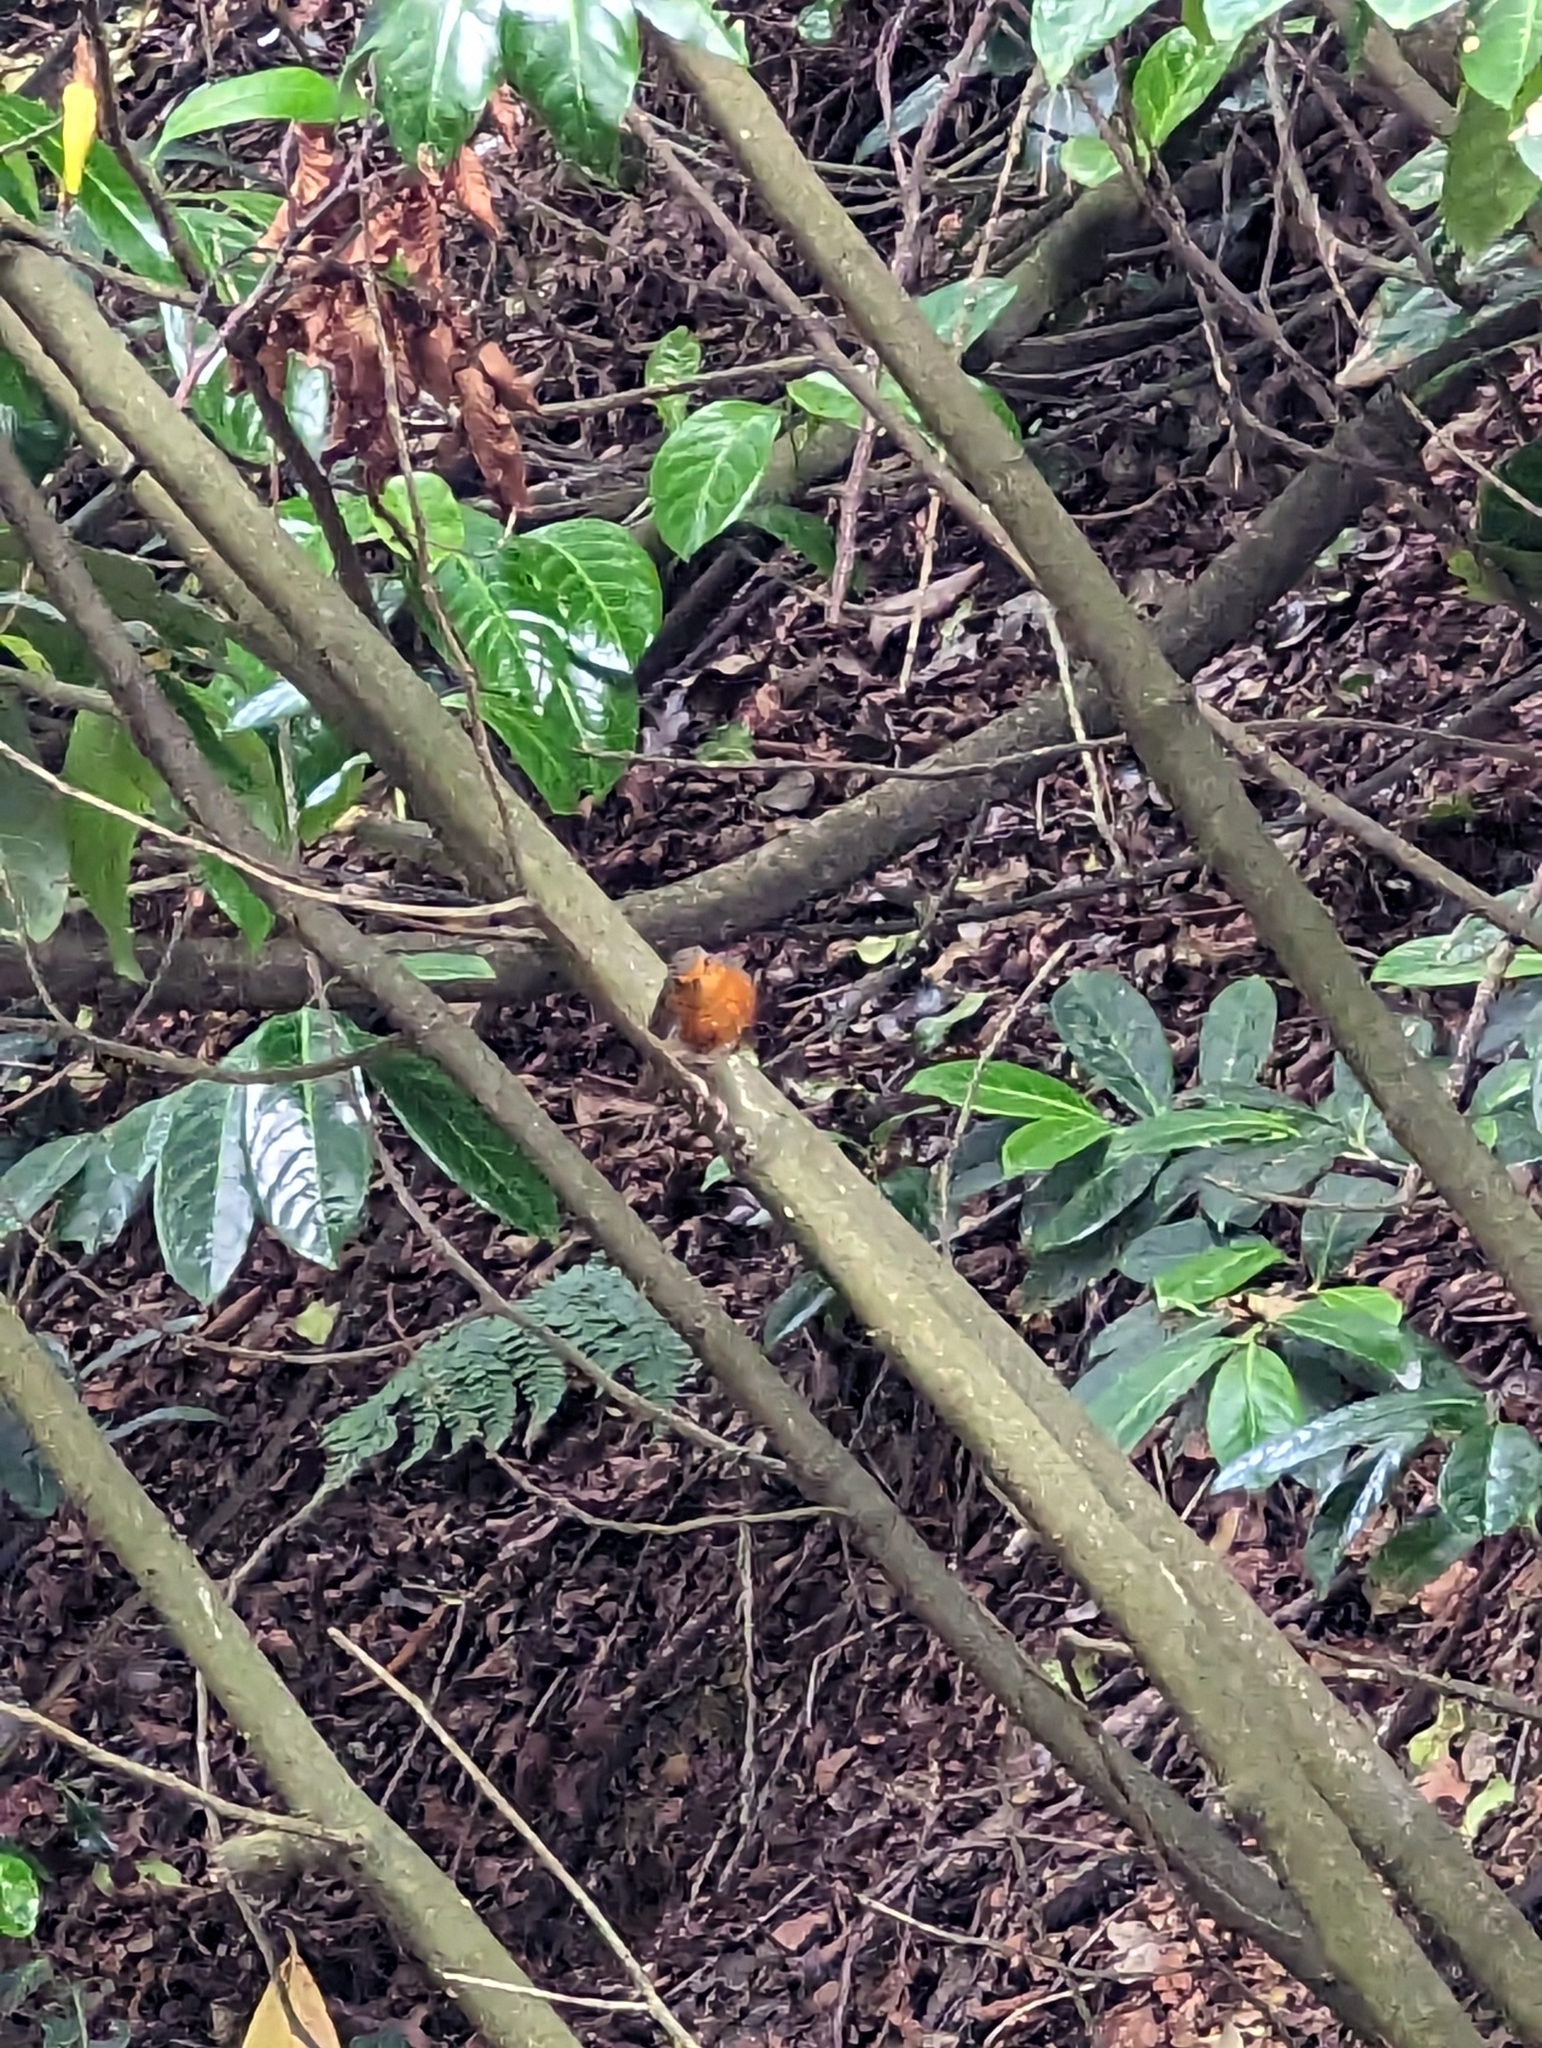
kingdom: Animalia
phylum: Chordata
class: Aves
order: Passeriformes
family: Muscicapidae
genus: Erithacus
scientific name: Erithacus rubecula
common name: European robin
